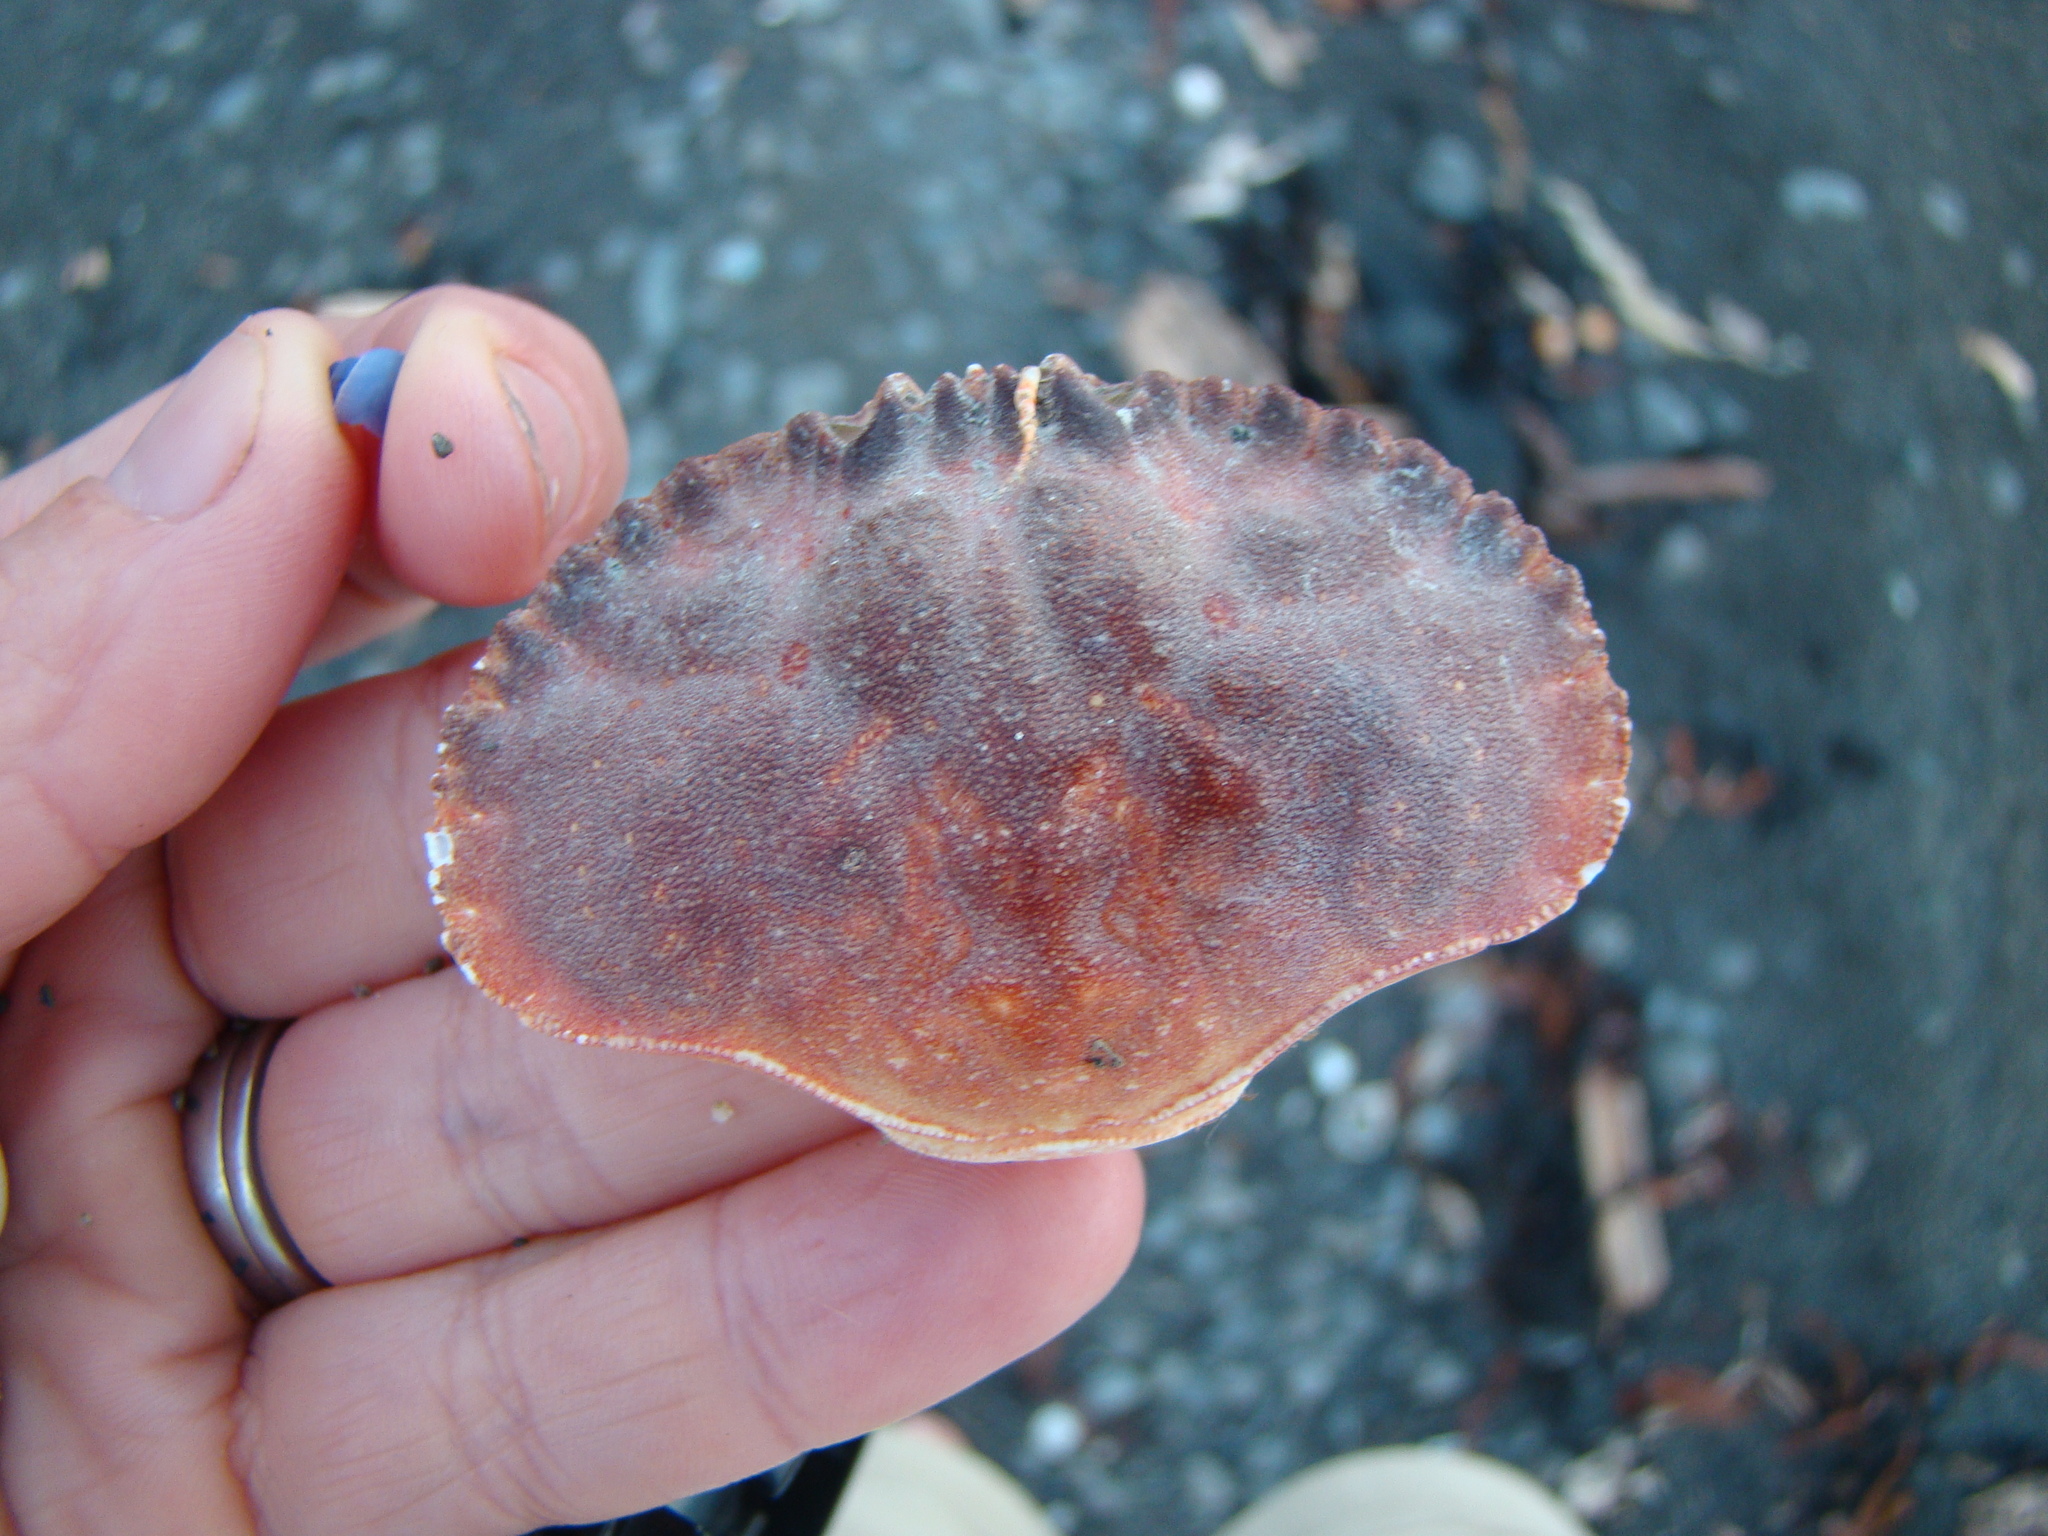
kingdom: Animalia
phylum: Arthropoda
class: Malacostraca
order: Decapoda
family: Cancridae
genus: Metacarcinus
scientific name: Metacarcinus novaezelandiae
